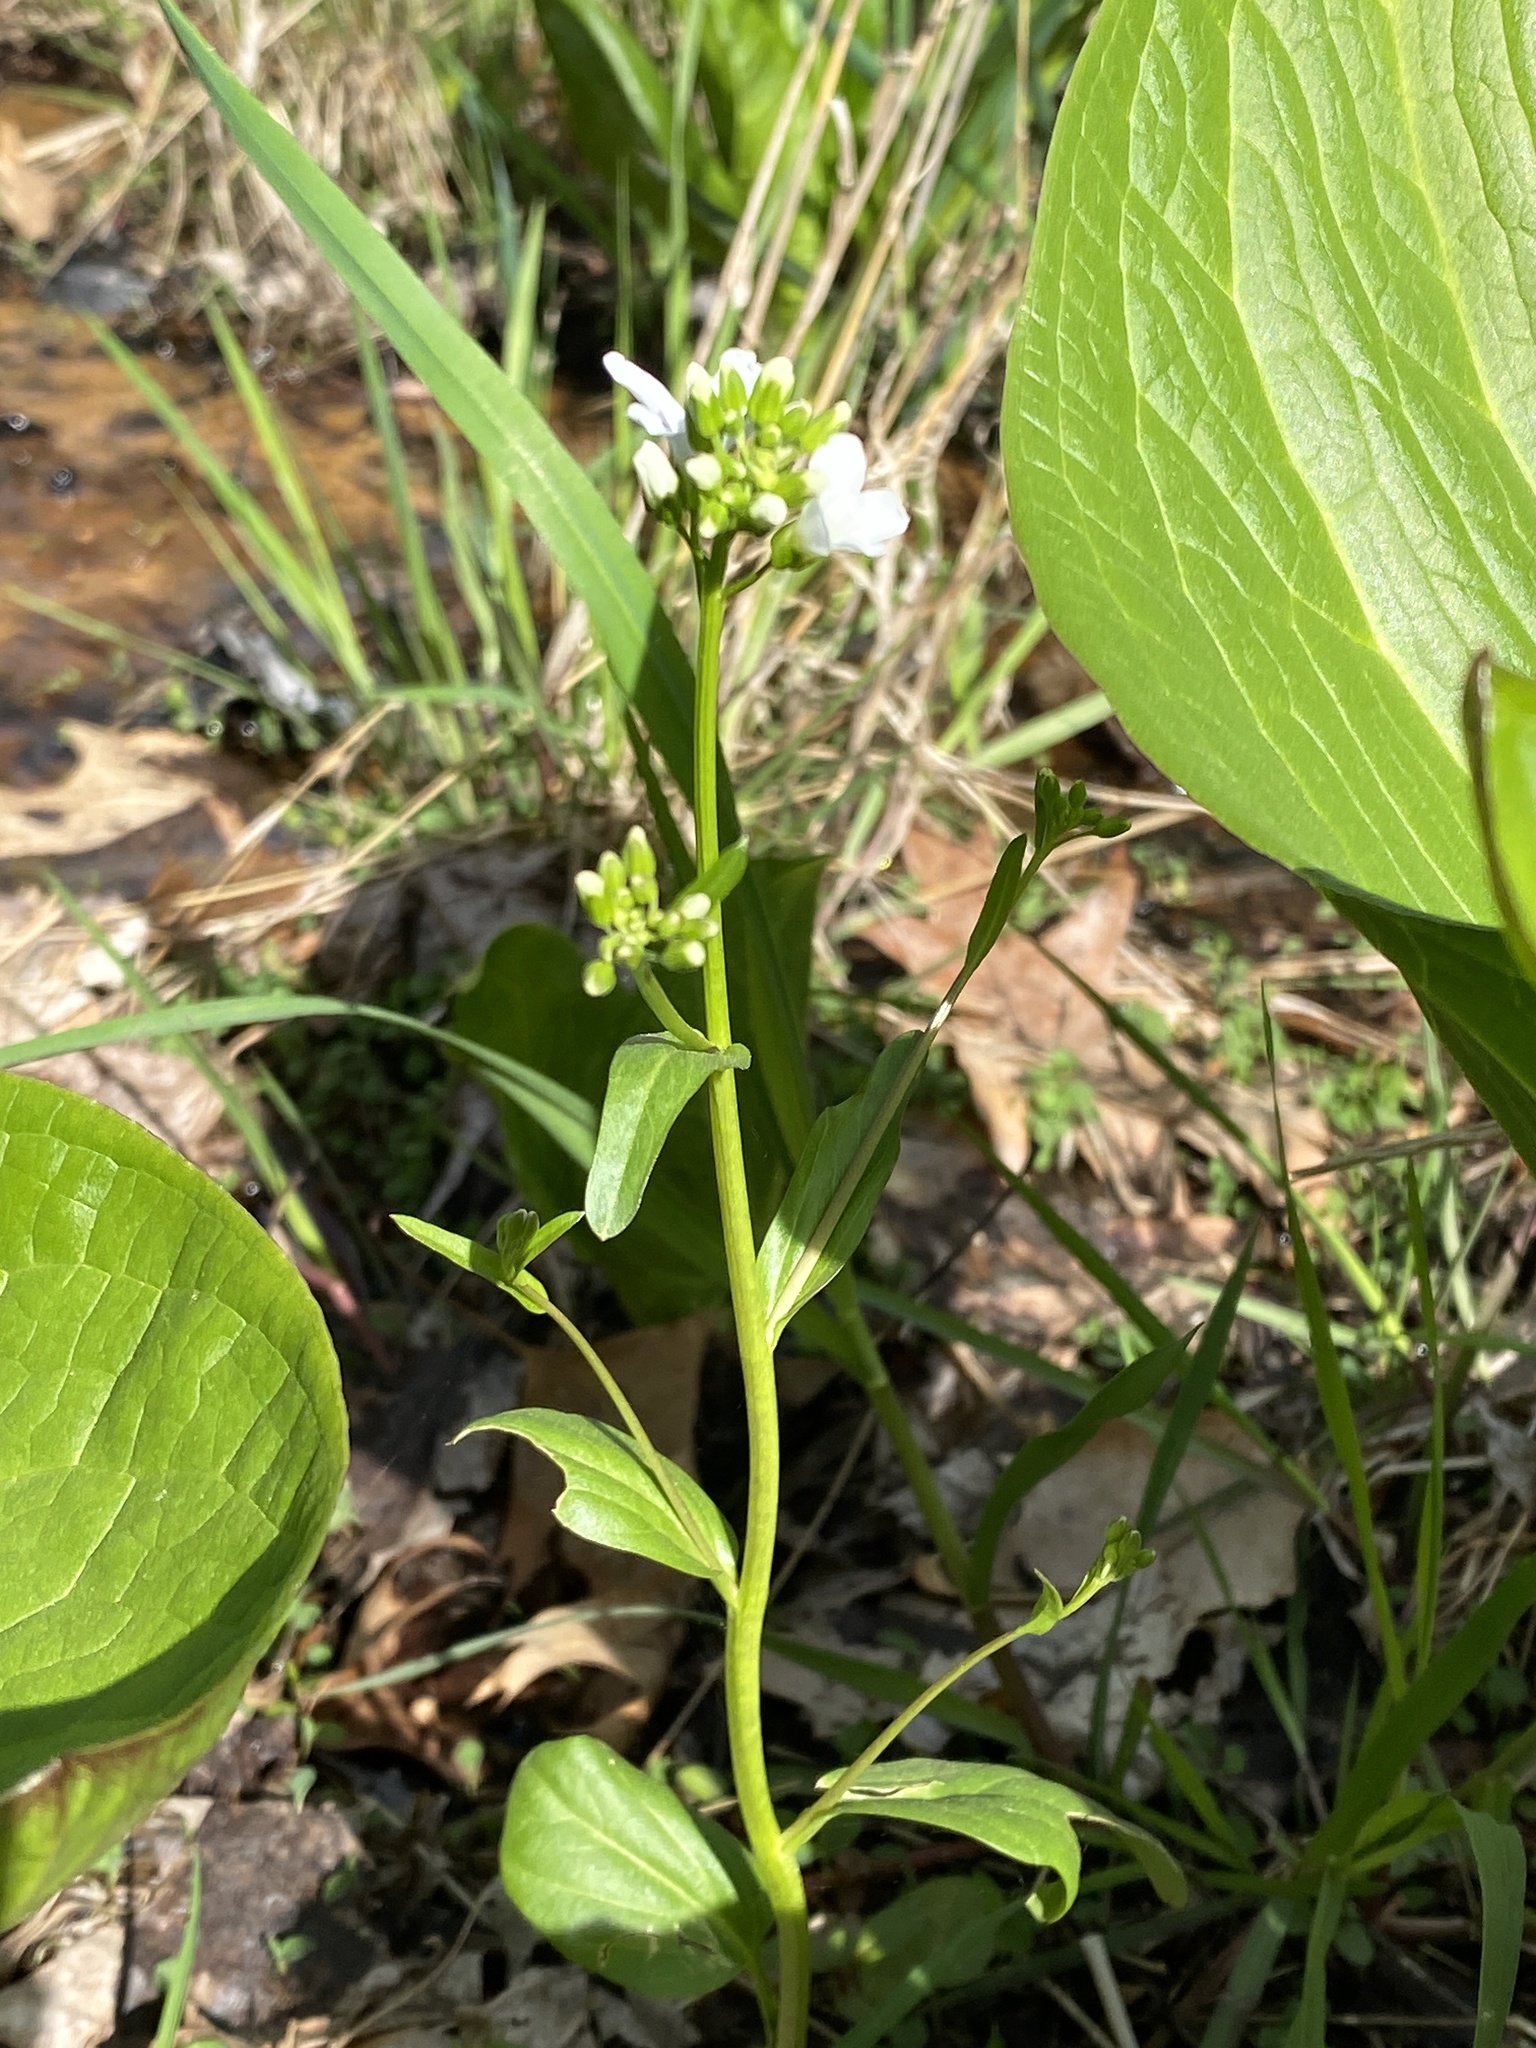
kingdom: Plantae
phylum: Tracheophyta
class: Magnoliopsida
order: Brassicales
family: Brassicaceae
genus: Cardamine
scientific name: Cardamine bulbosa
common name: Spring cress
